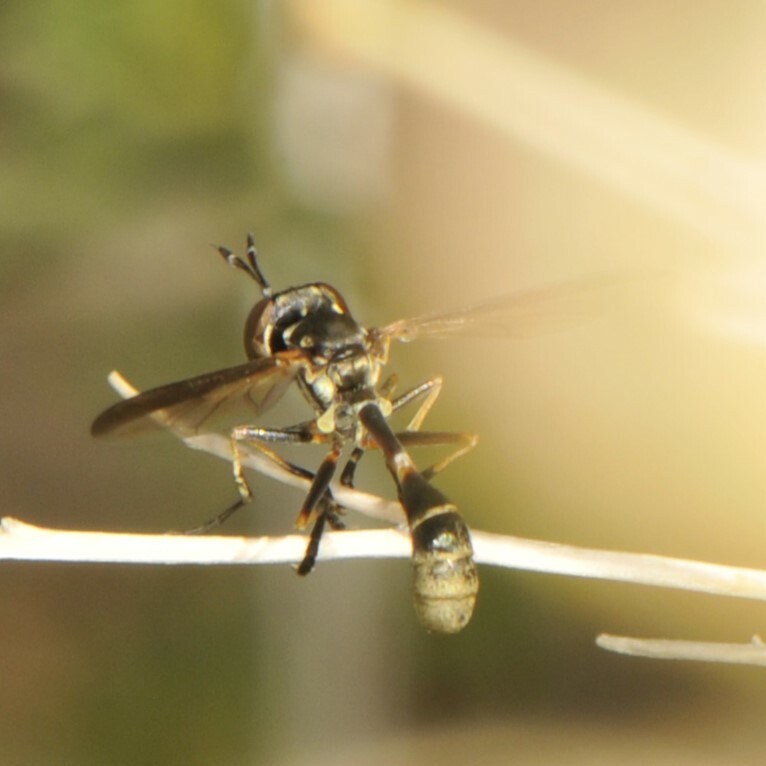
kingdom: Animalia
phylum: Arthropoda
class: Insecta
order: Diptera
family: Conopidae
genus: Physoconops
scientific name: Physoconops discalis
